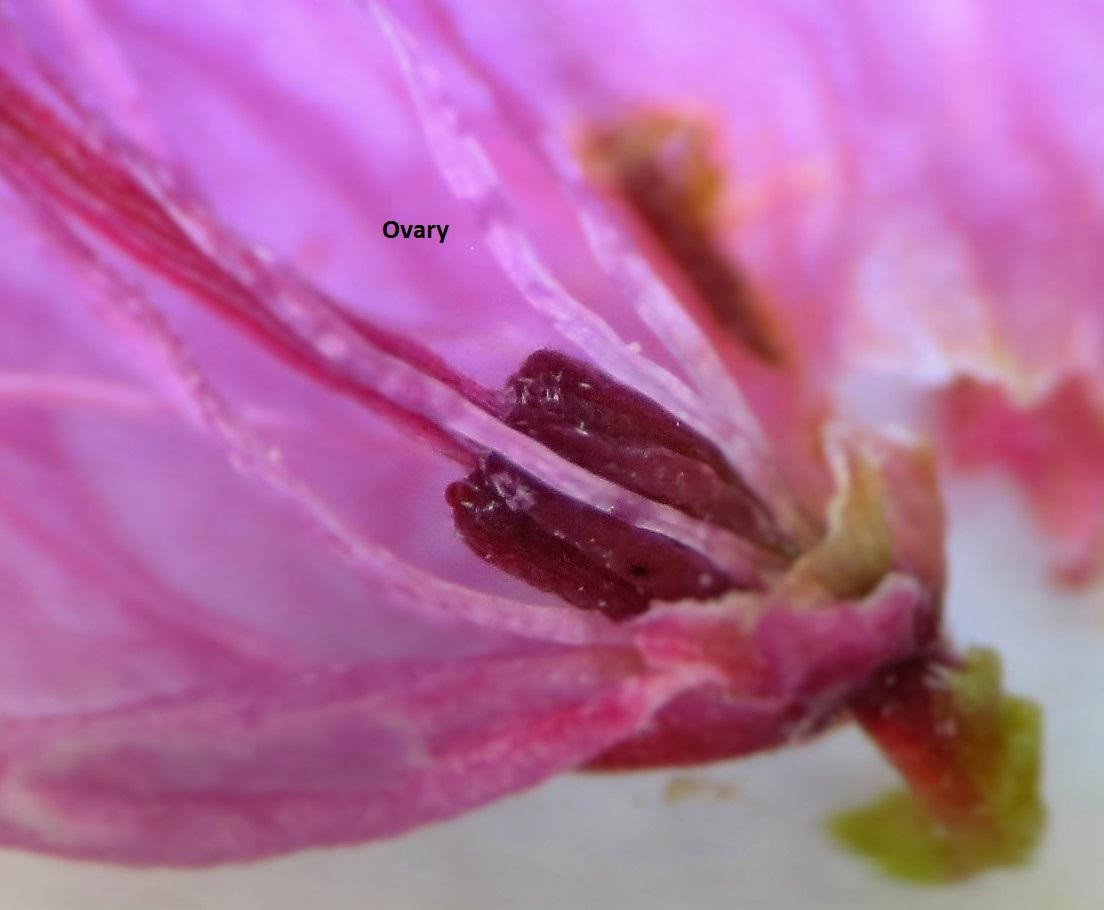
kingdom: Plantae
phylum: Tracheophyta
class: Magnoliopsida
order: Ericales
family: Ericaceae
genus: Erica
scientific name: Erica orculiflora
